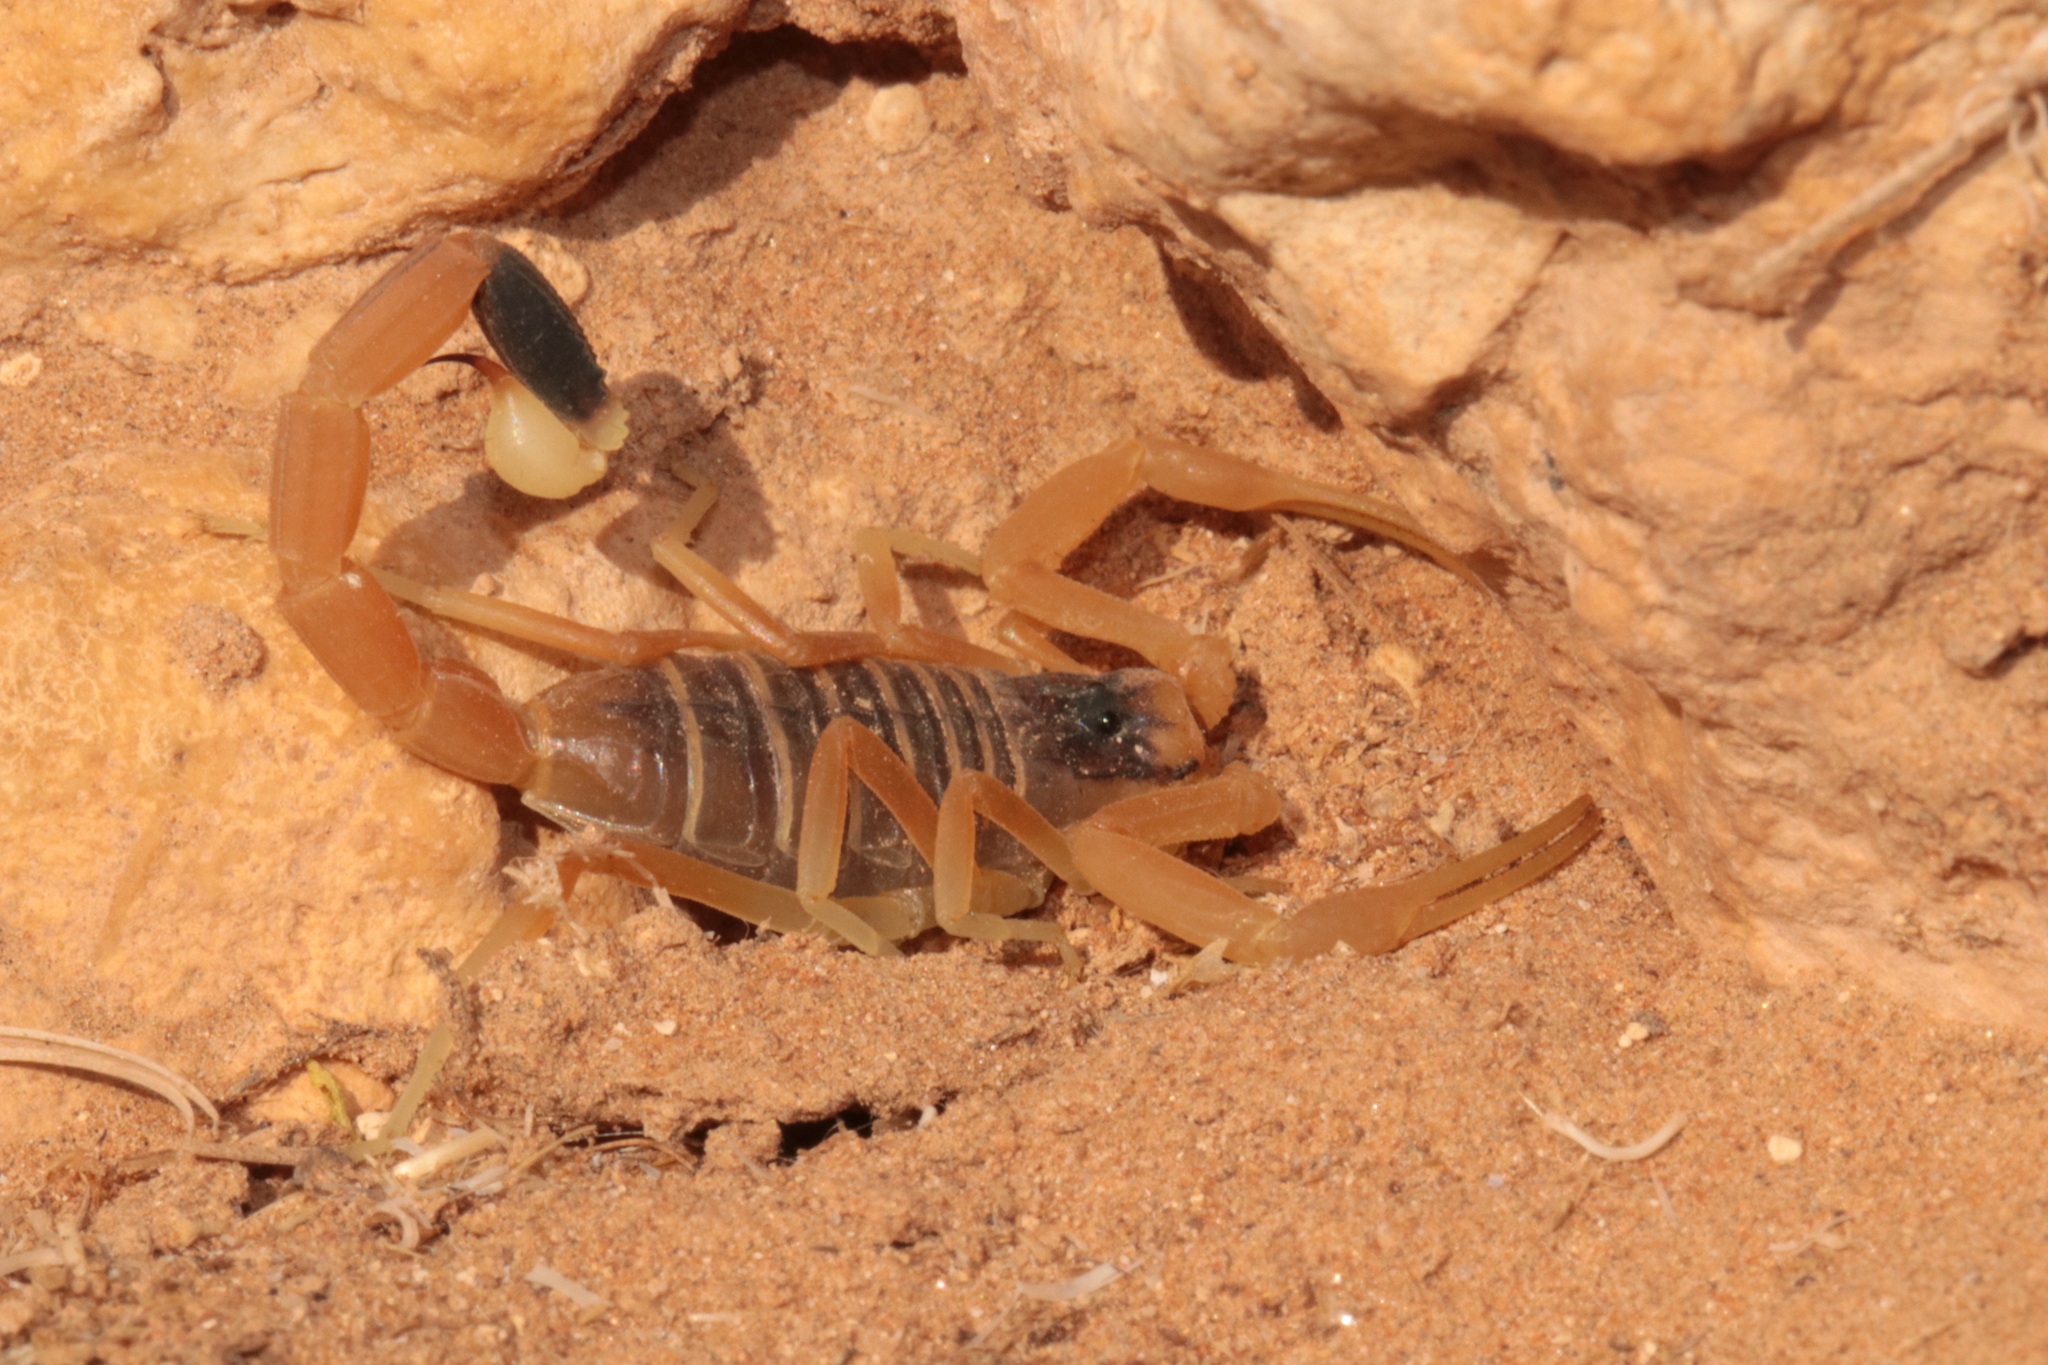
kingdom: Animalia
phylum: Arthropoda
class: Arachnida
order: Scorpiones
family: Buthidae
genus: Leiurus
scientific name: Leiurus arabicus
